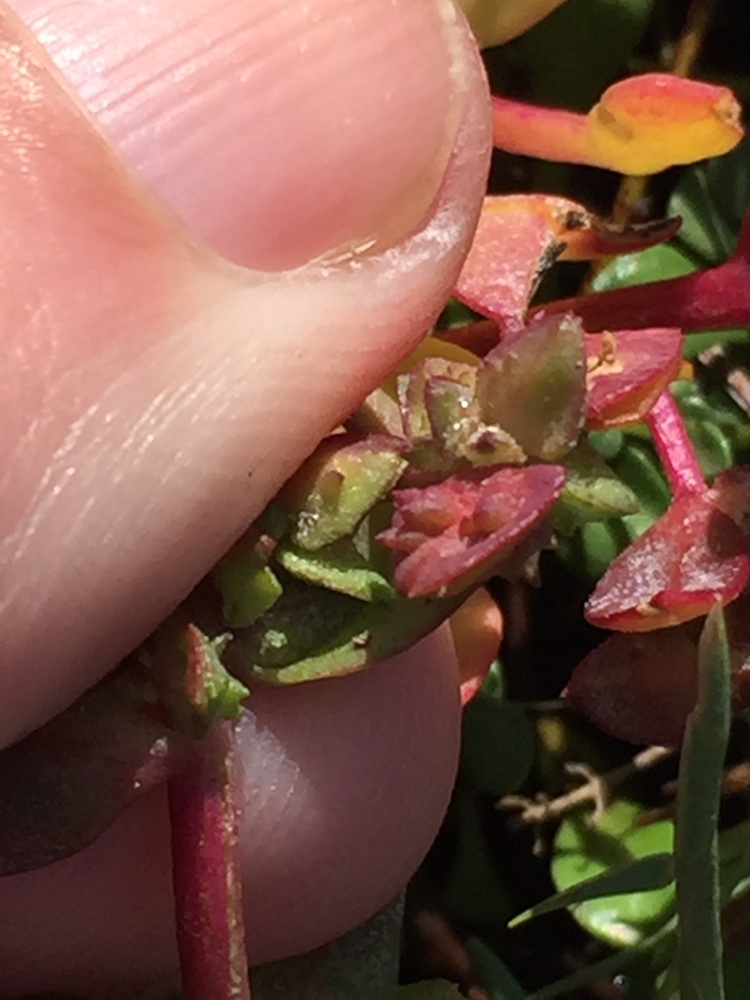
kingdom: Plantae
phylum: Tracheophyta
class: Magnoliopsida
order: Caryophyllales
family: Amaranthaceae
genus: Oxybasis
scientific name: Oxybasis ambigua
